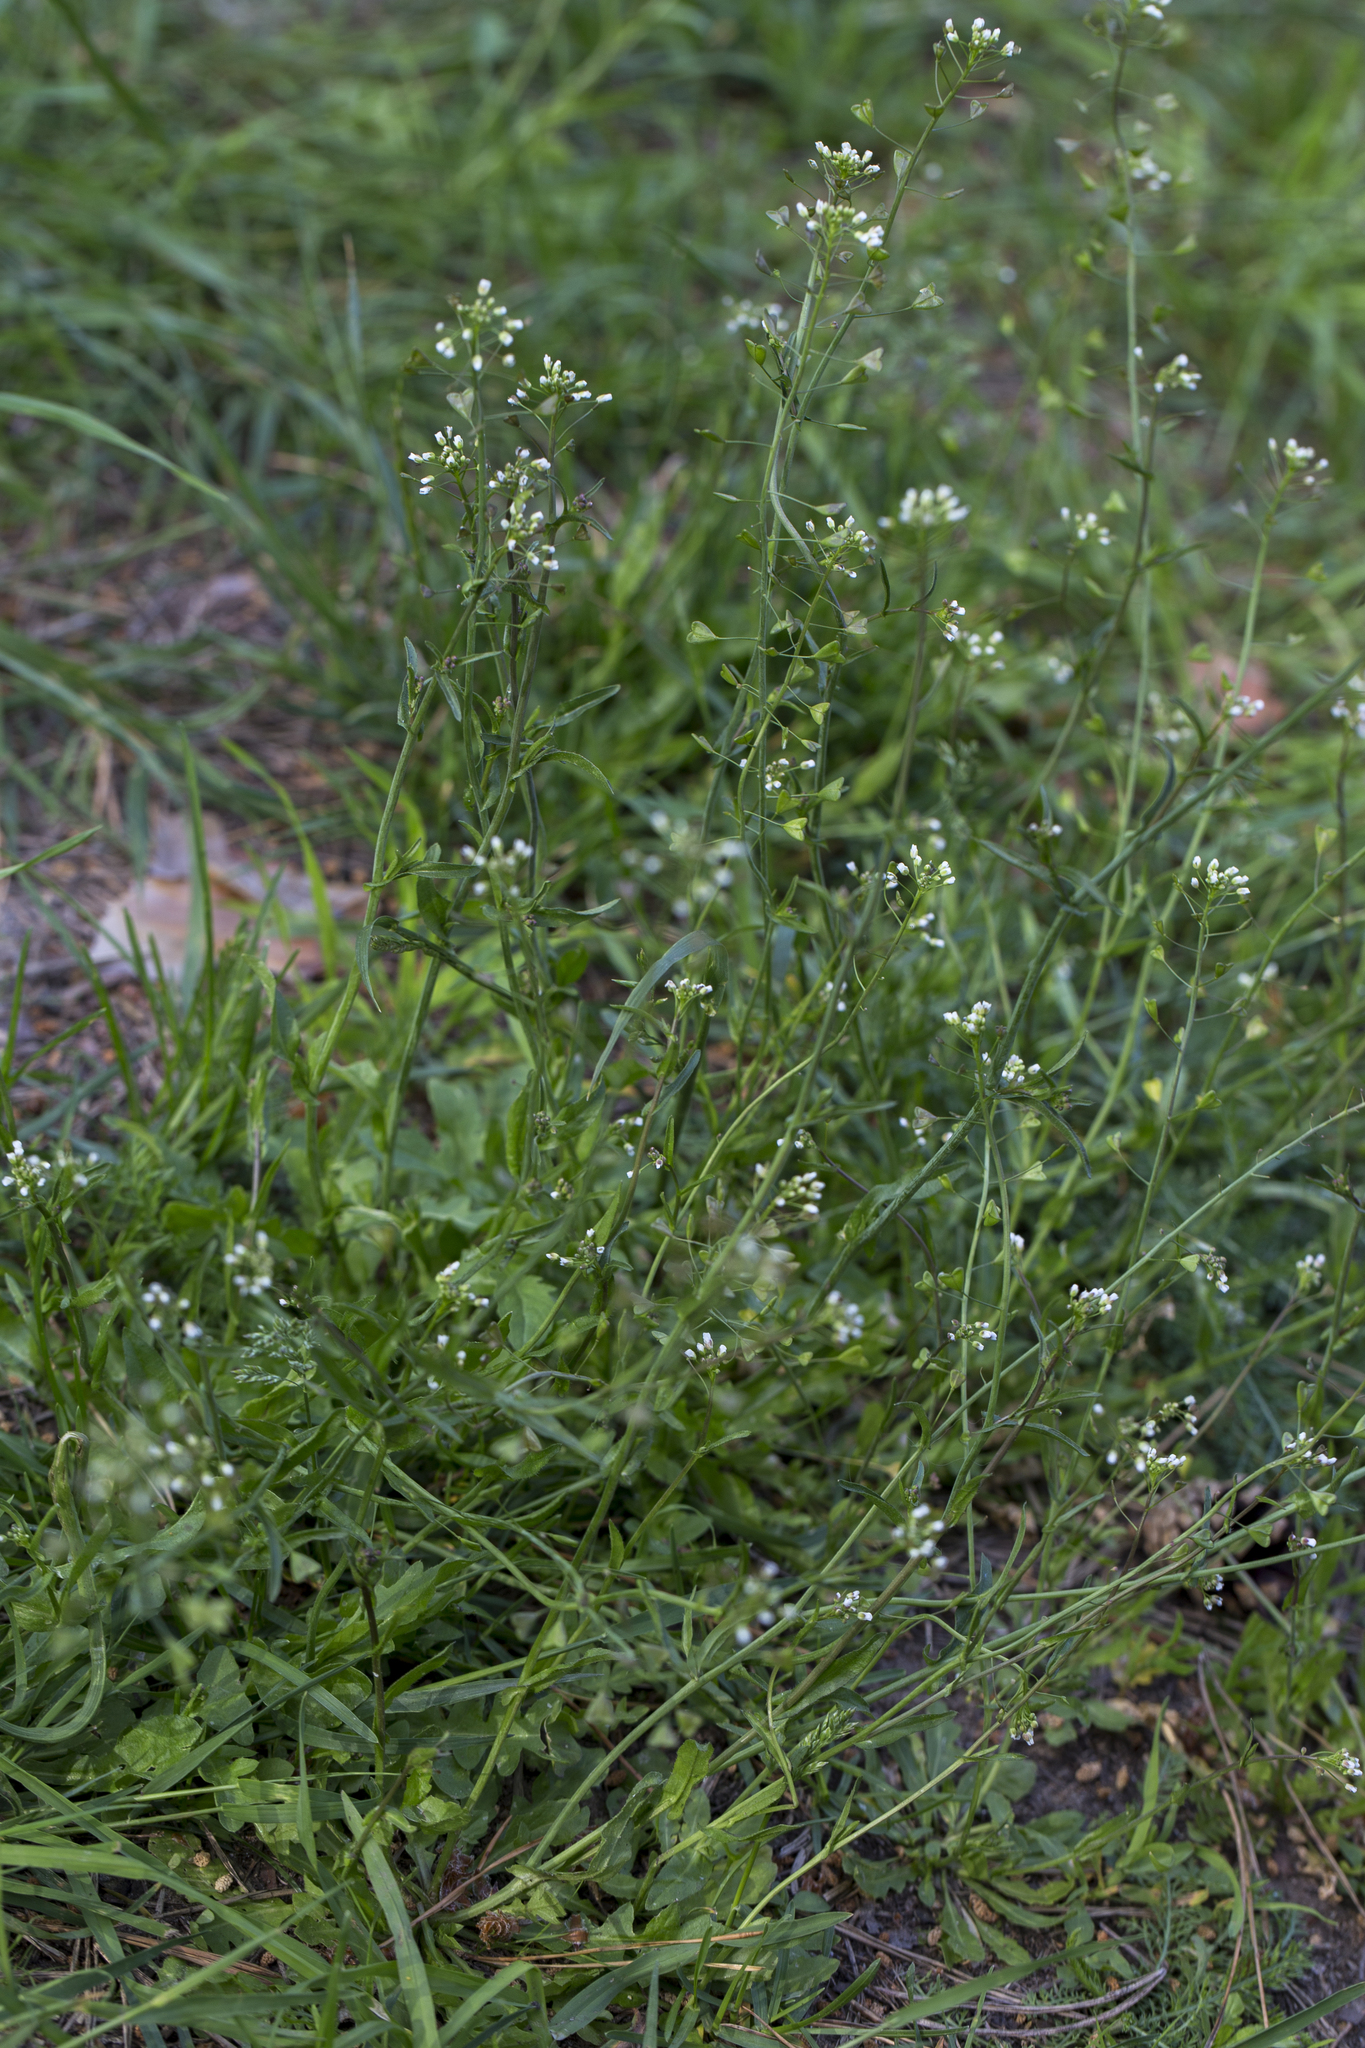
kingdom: Plantae
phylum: Tracheophyta
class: Magnoliopsida
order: Brassicales
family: Brassicaceae
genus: Capsella
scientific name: Capsella bursa-pastoris
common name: Shepherd's purse
